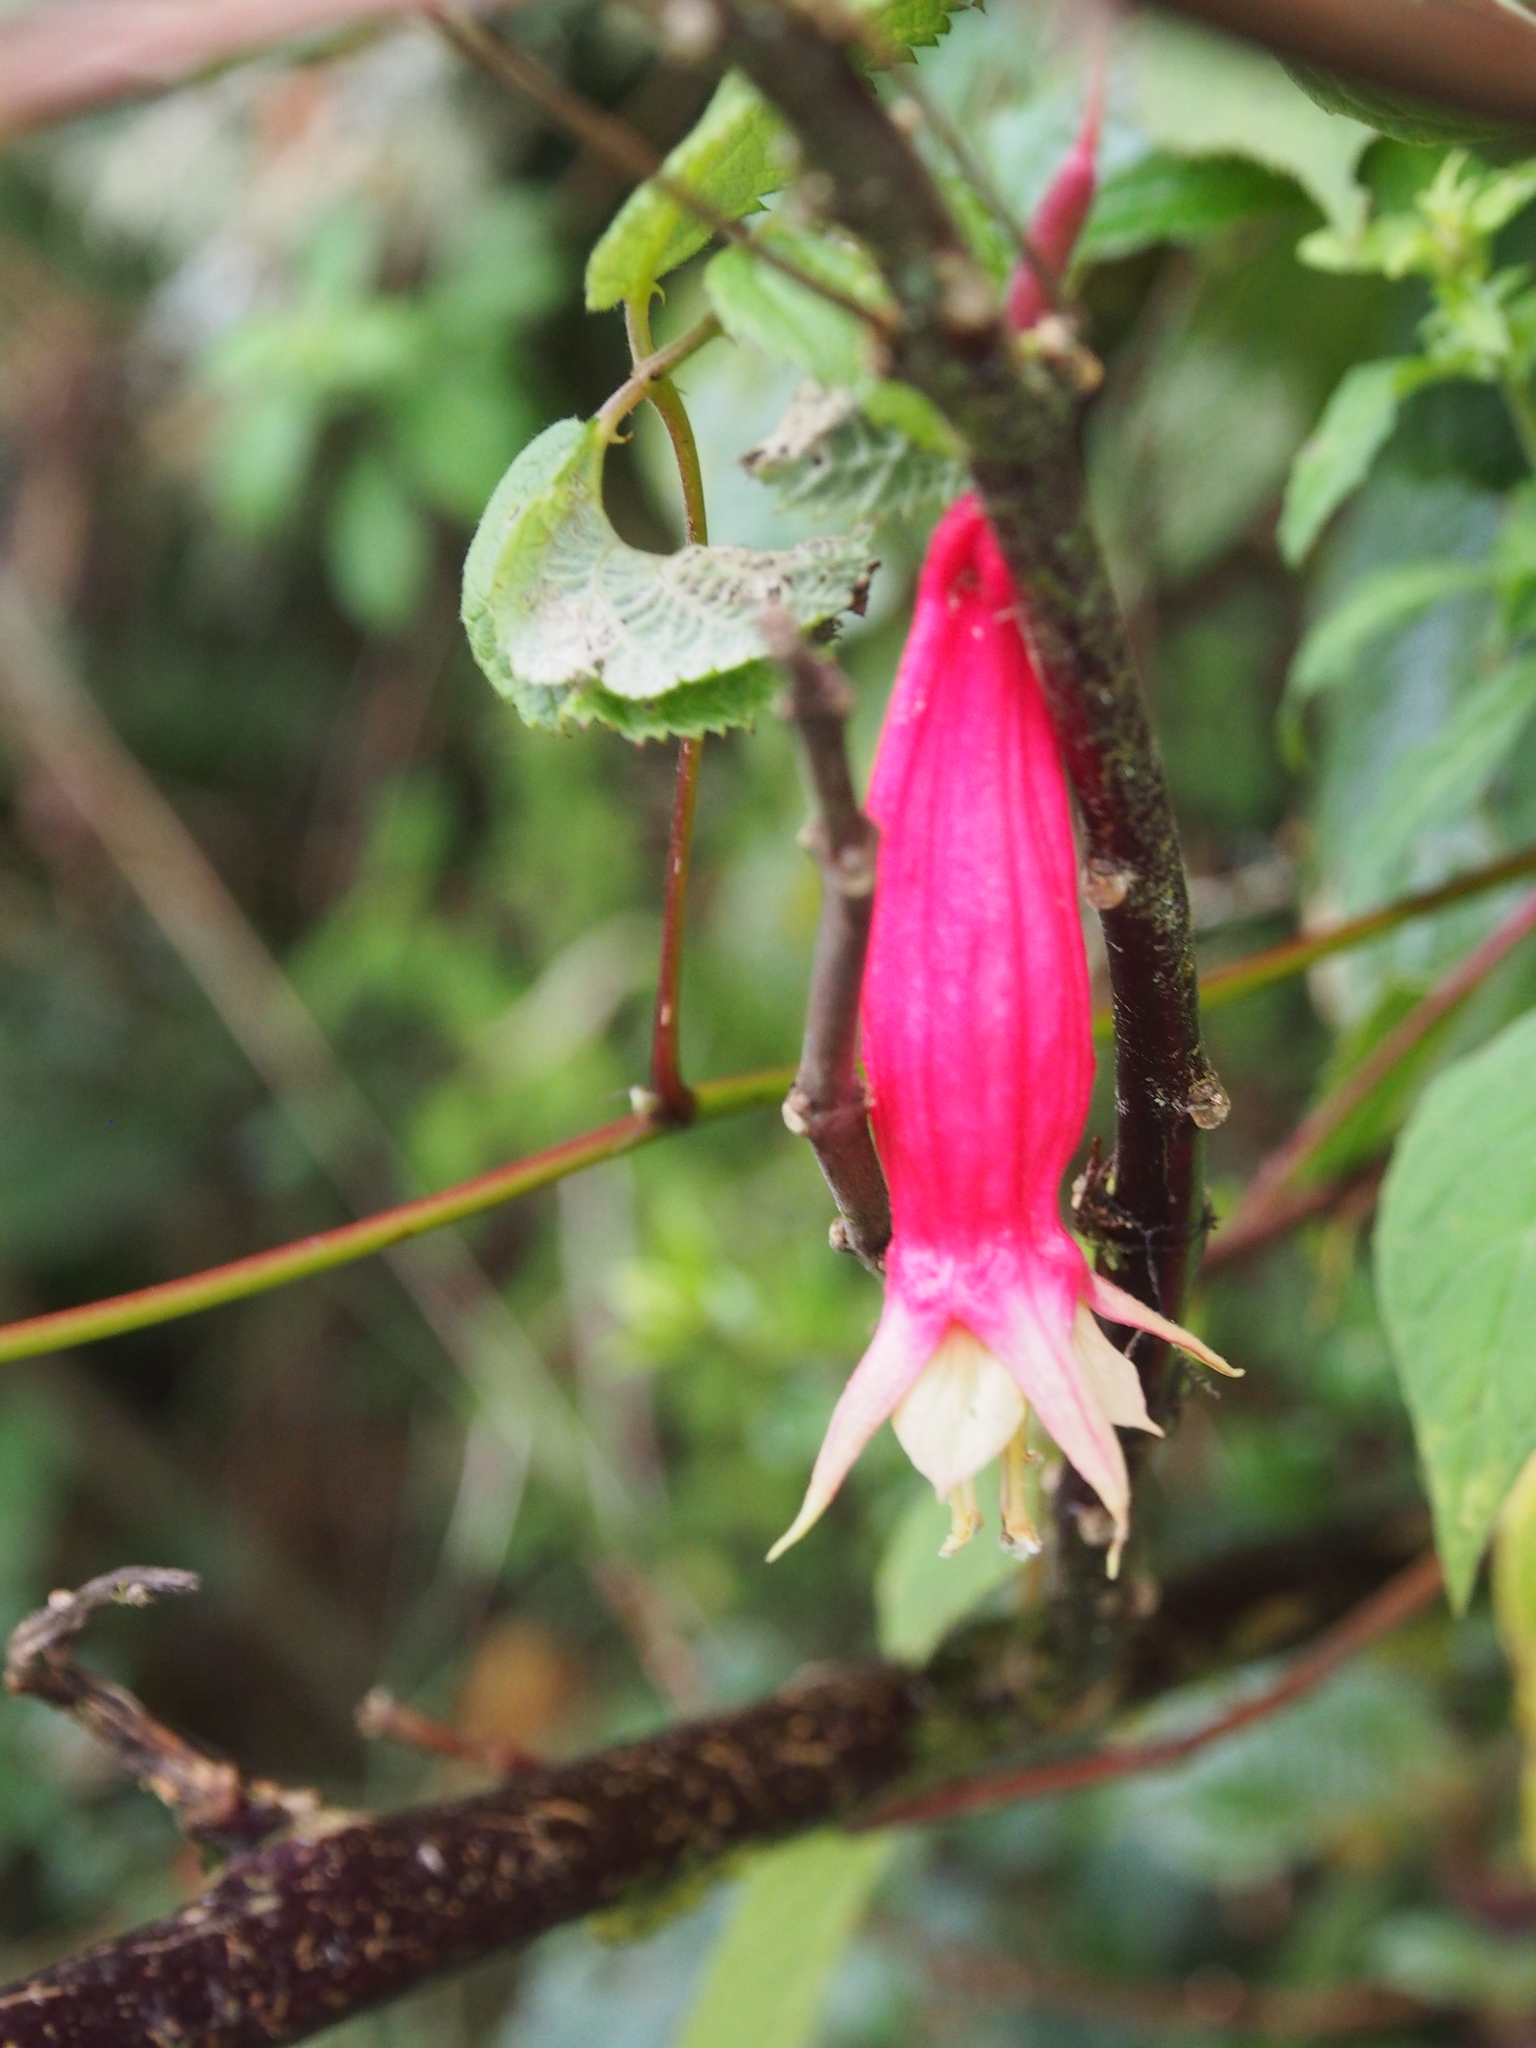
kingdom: Plantae
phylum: Tracheophyta
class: Magnoliopsida
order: Myrtales
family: Onagraceae
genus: Fuchsia
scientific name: Fuchsia splendens
